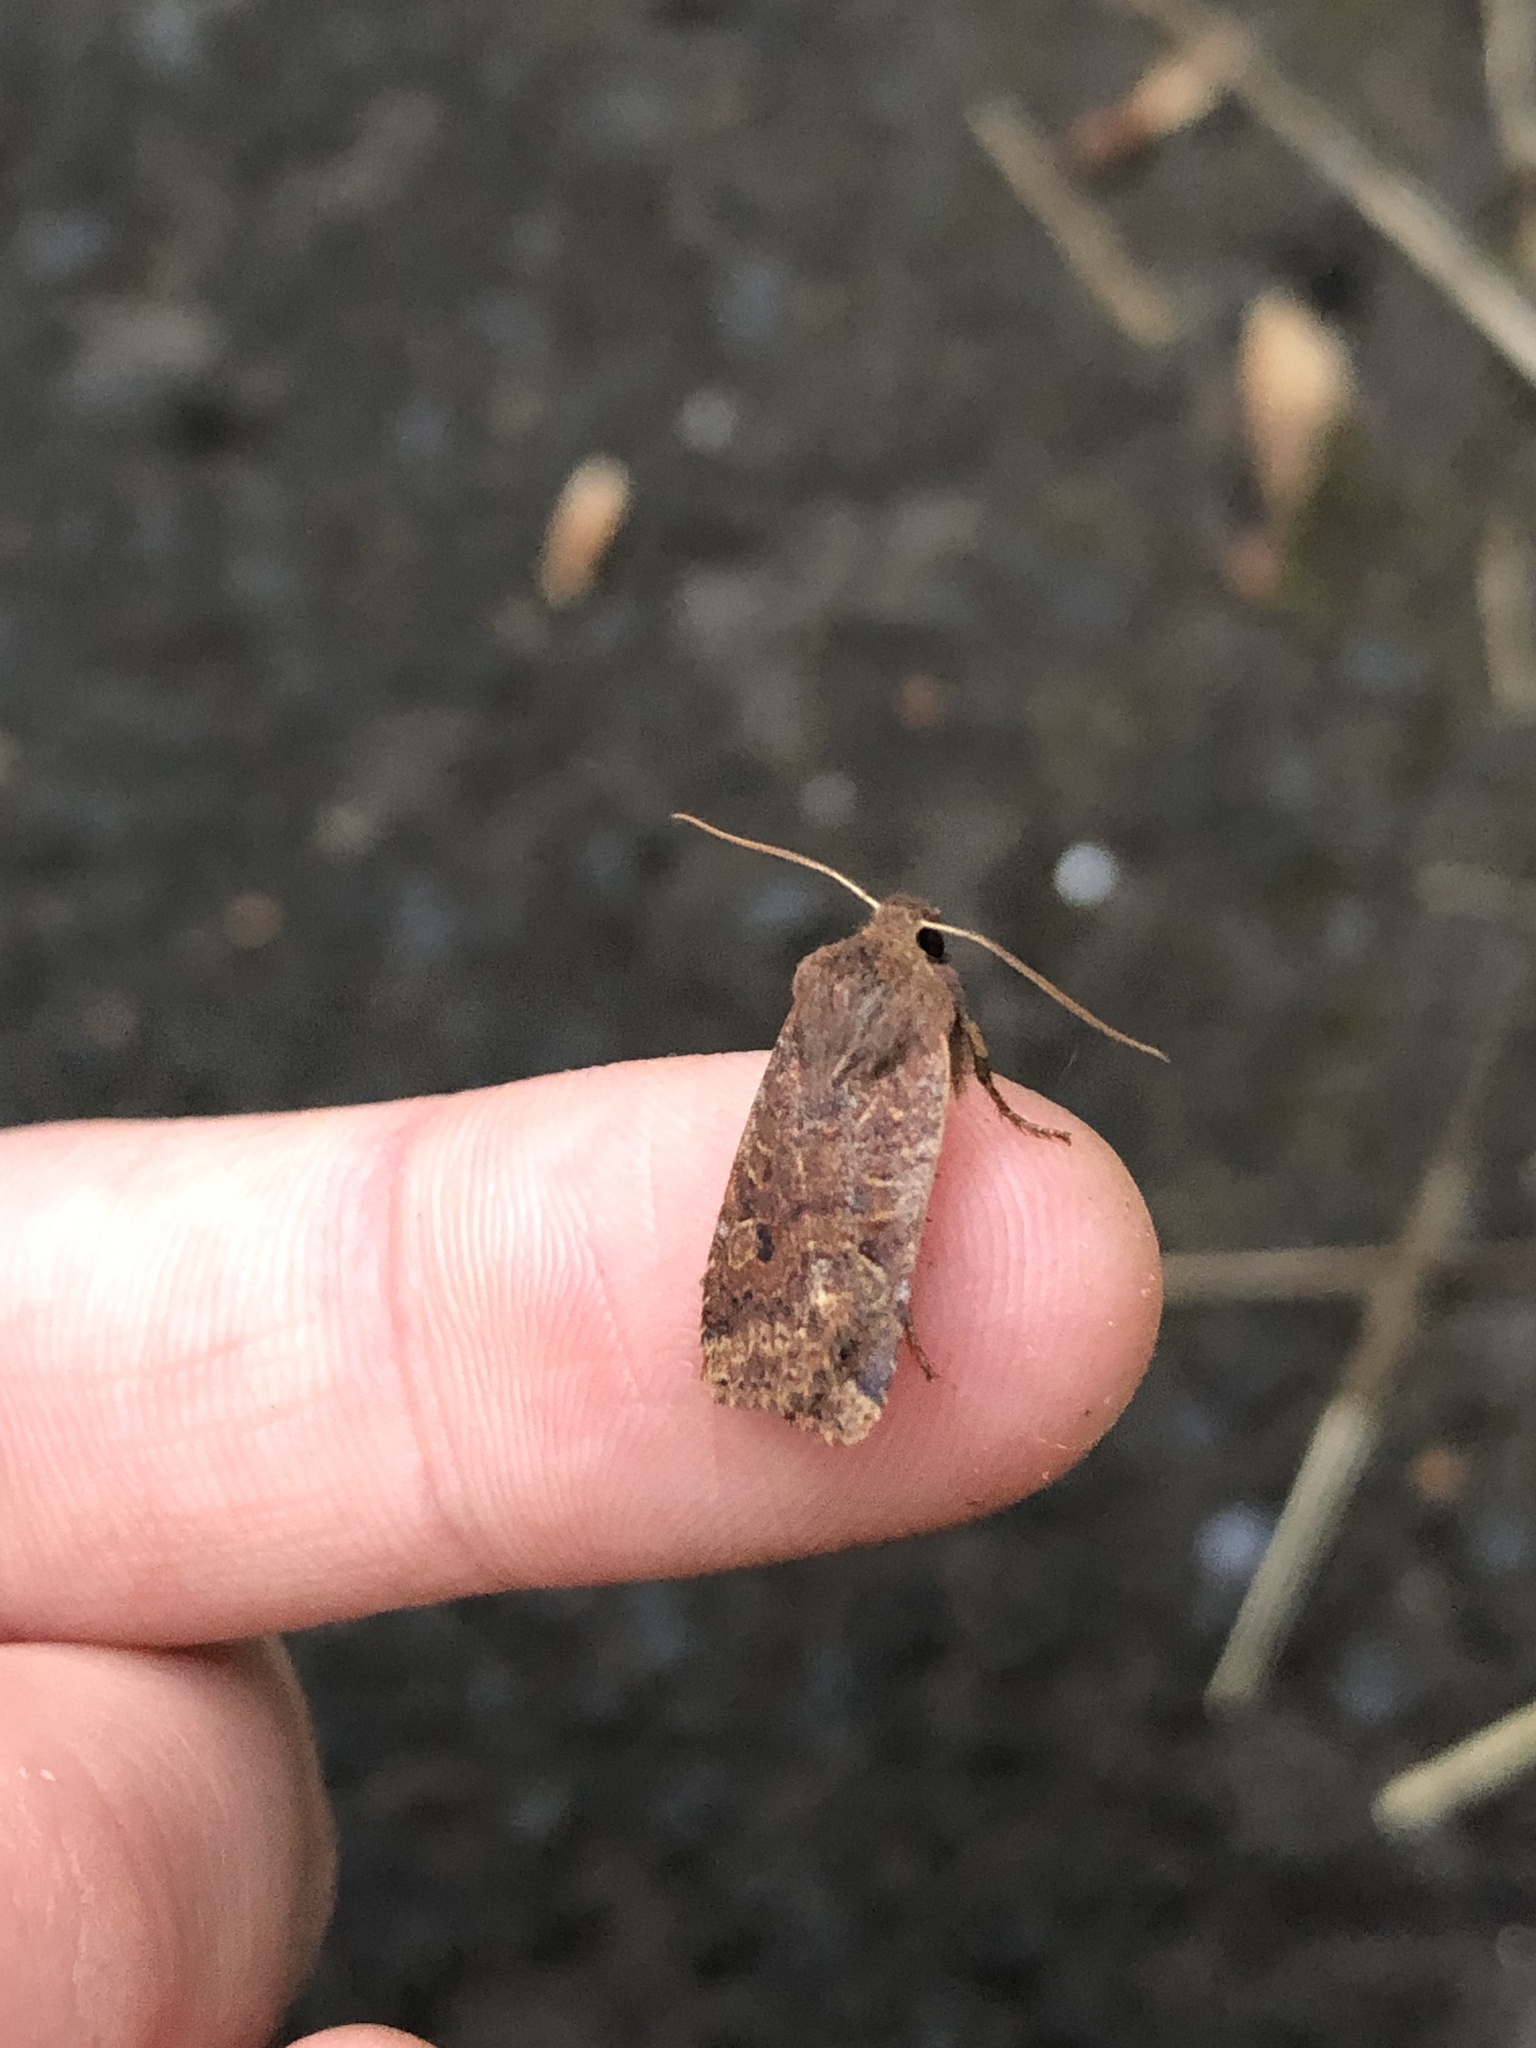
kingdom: Animalia
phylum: Arthropoda
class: Insecta
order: Lepidoptera
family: Noctuidae
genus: Conistra
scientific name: Conistra vaccinii
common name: Chestnut
